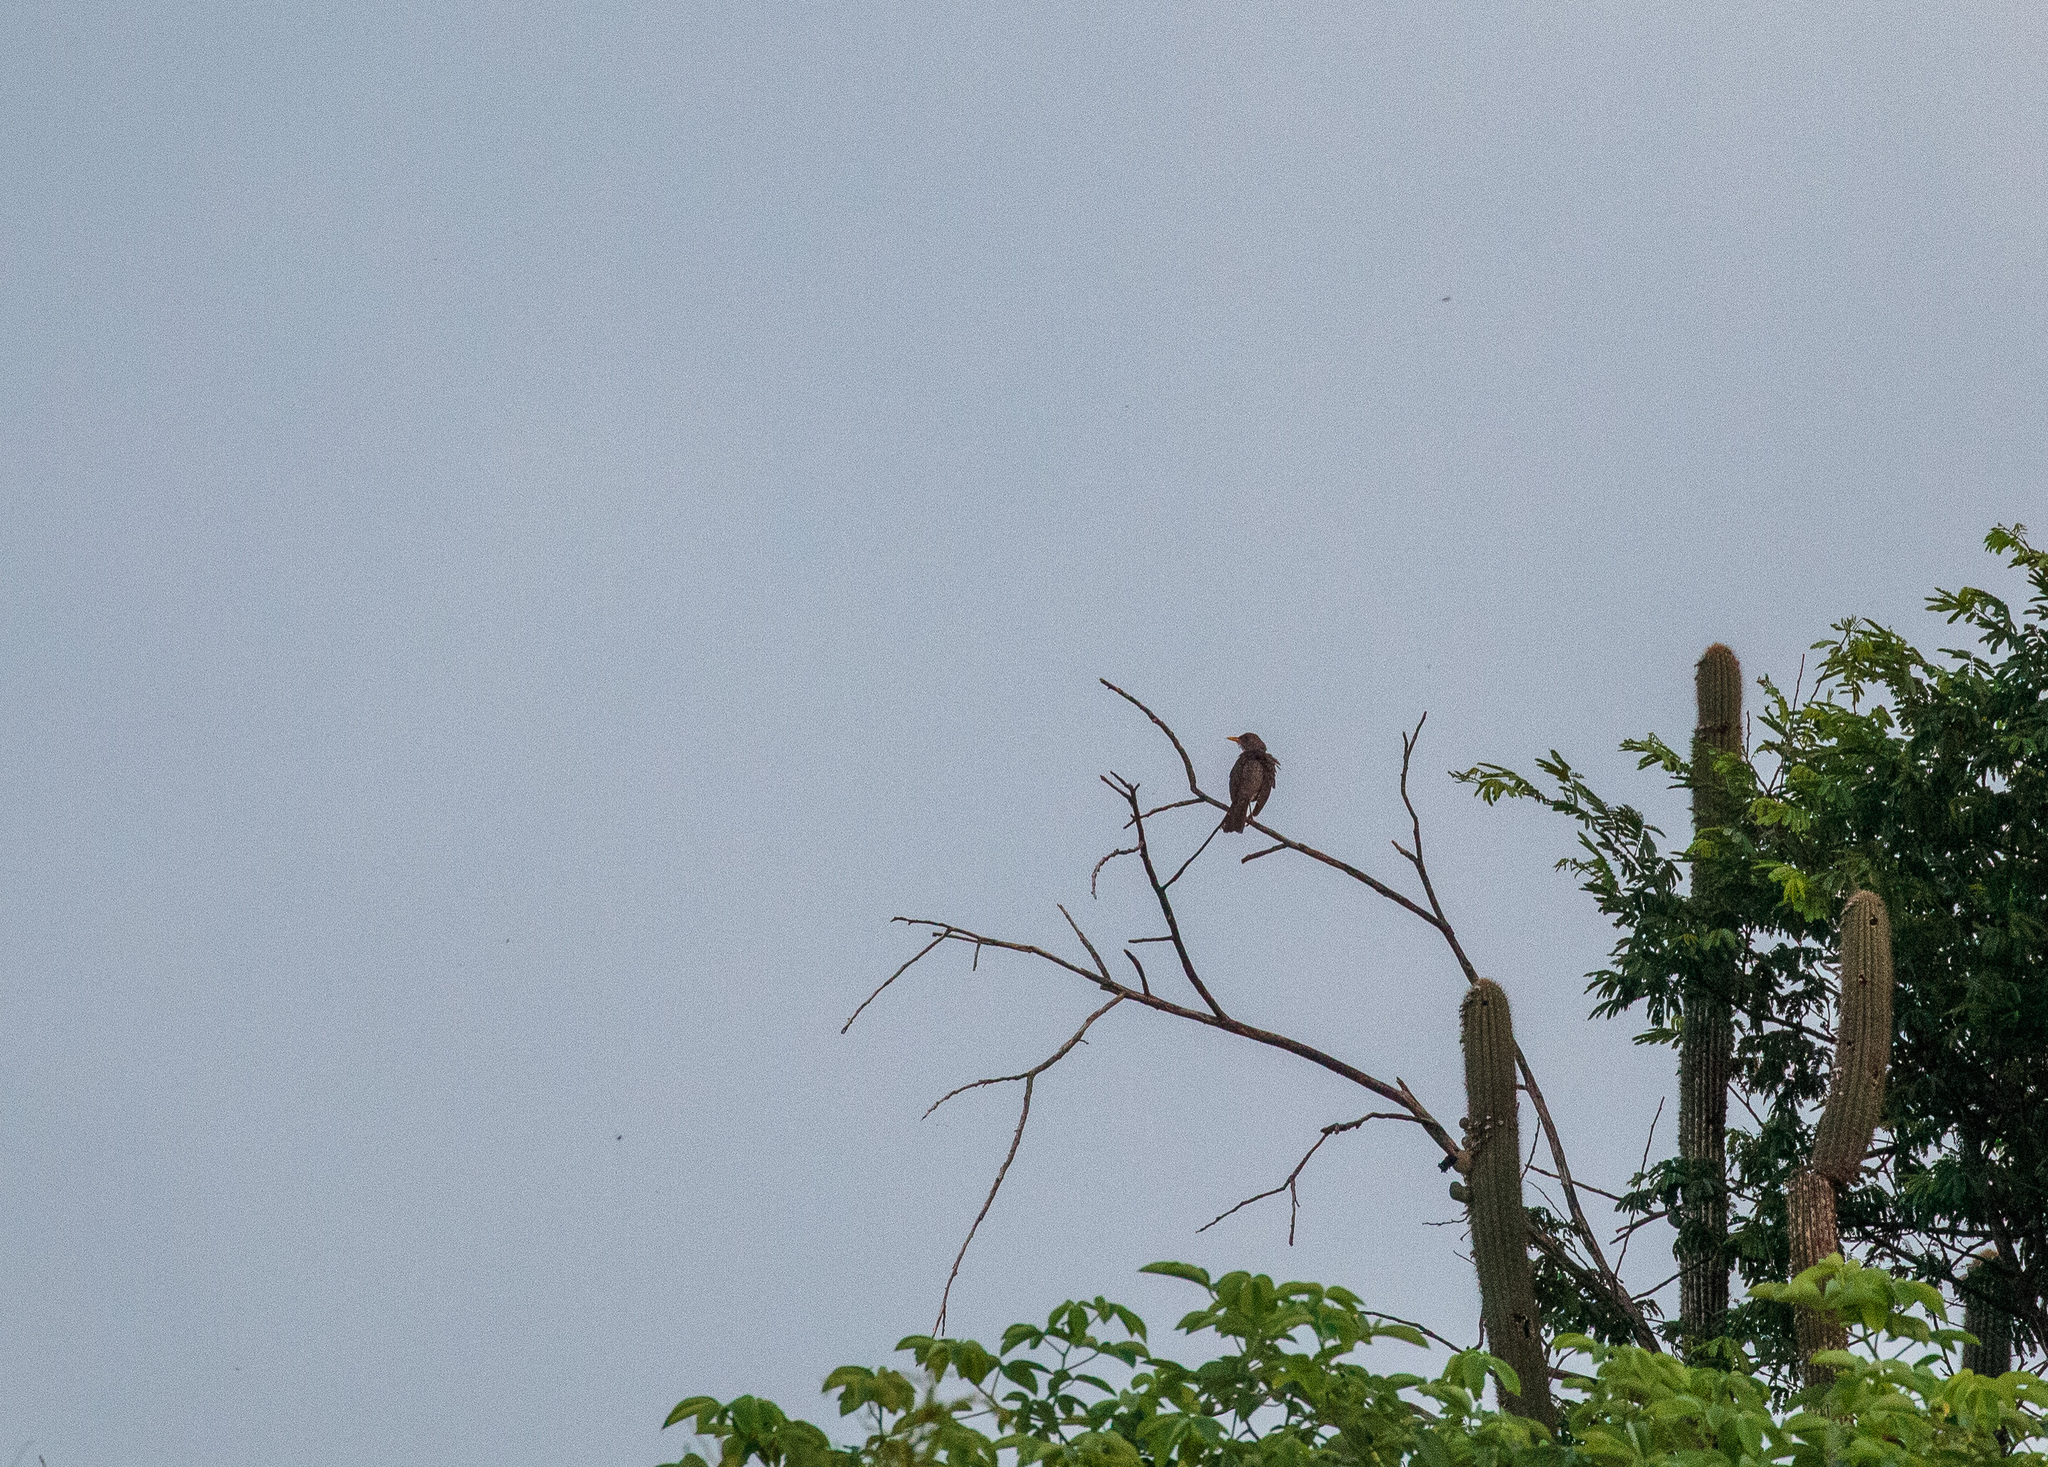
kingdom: Animalia
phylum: Chordata
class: Aves
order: Passeriformes
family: Turdidae
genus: Turdus
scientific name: Turdus amaurochalinus
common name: Creamy-bellied thrush
